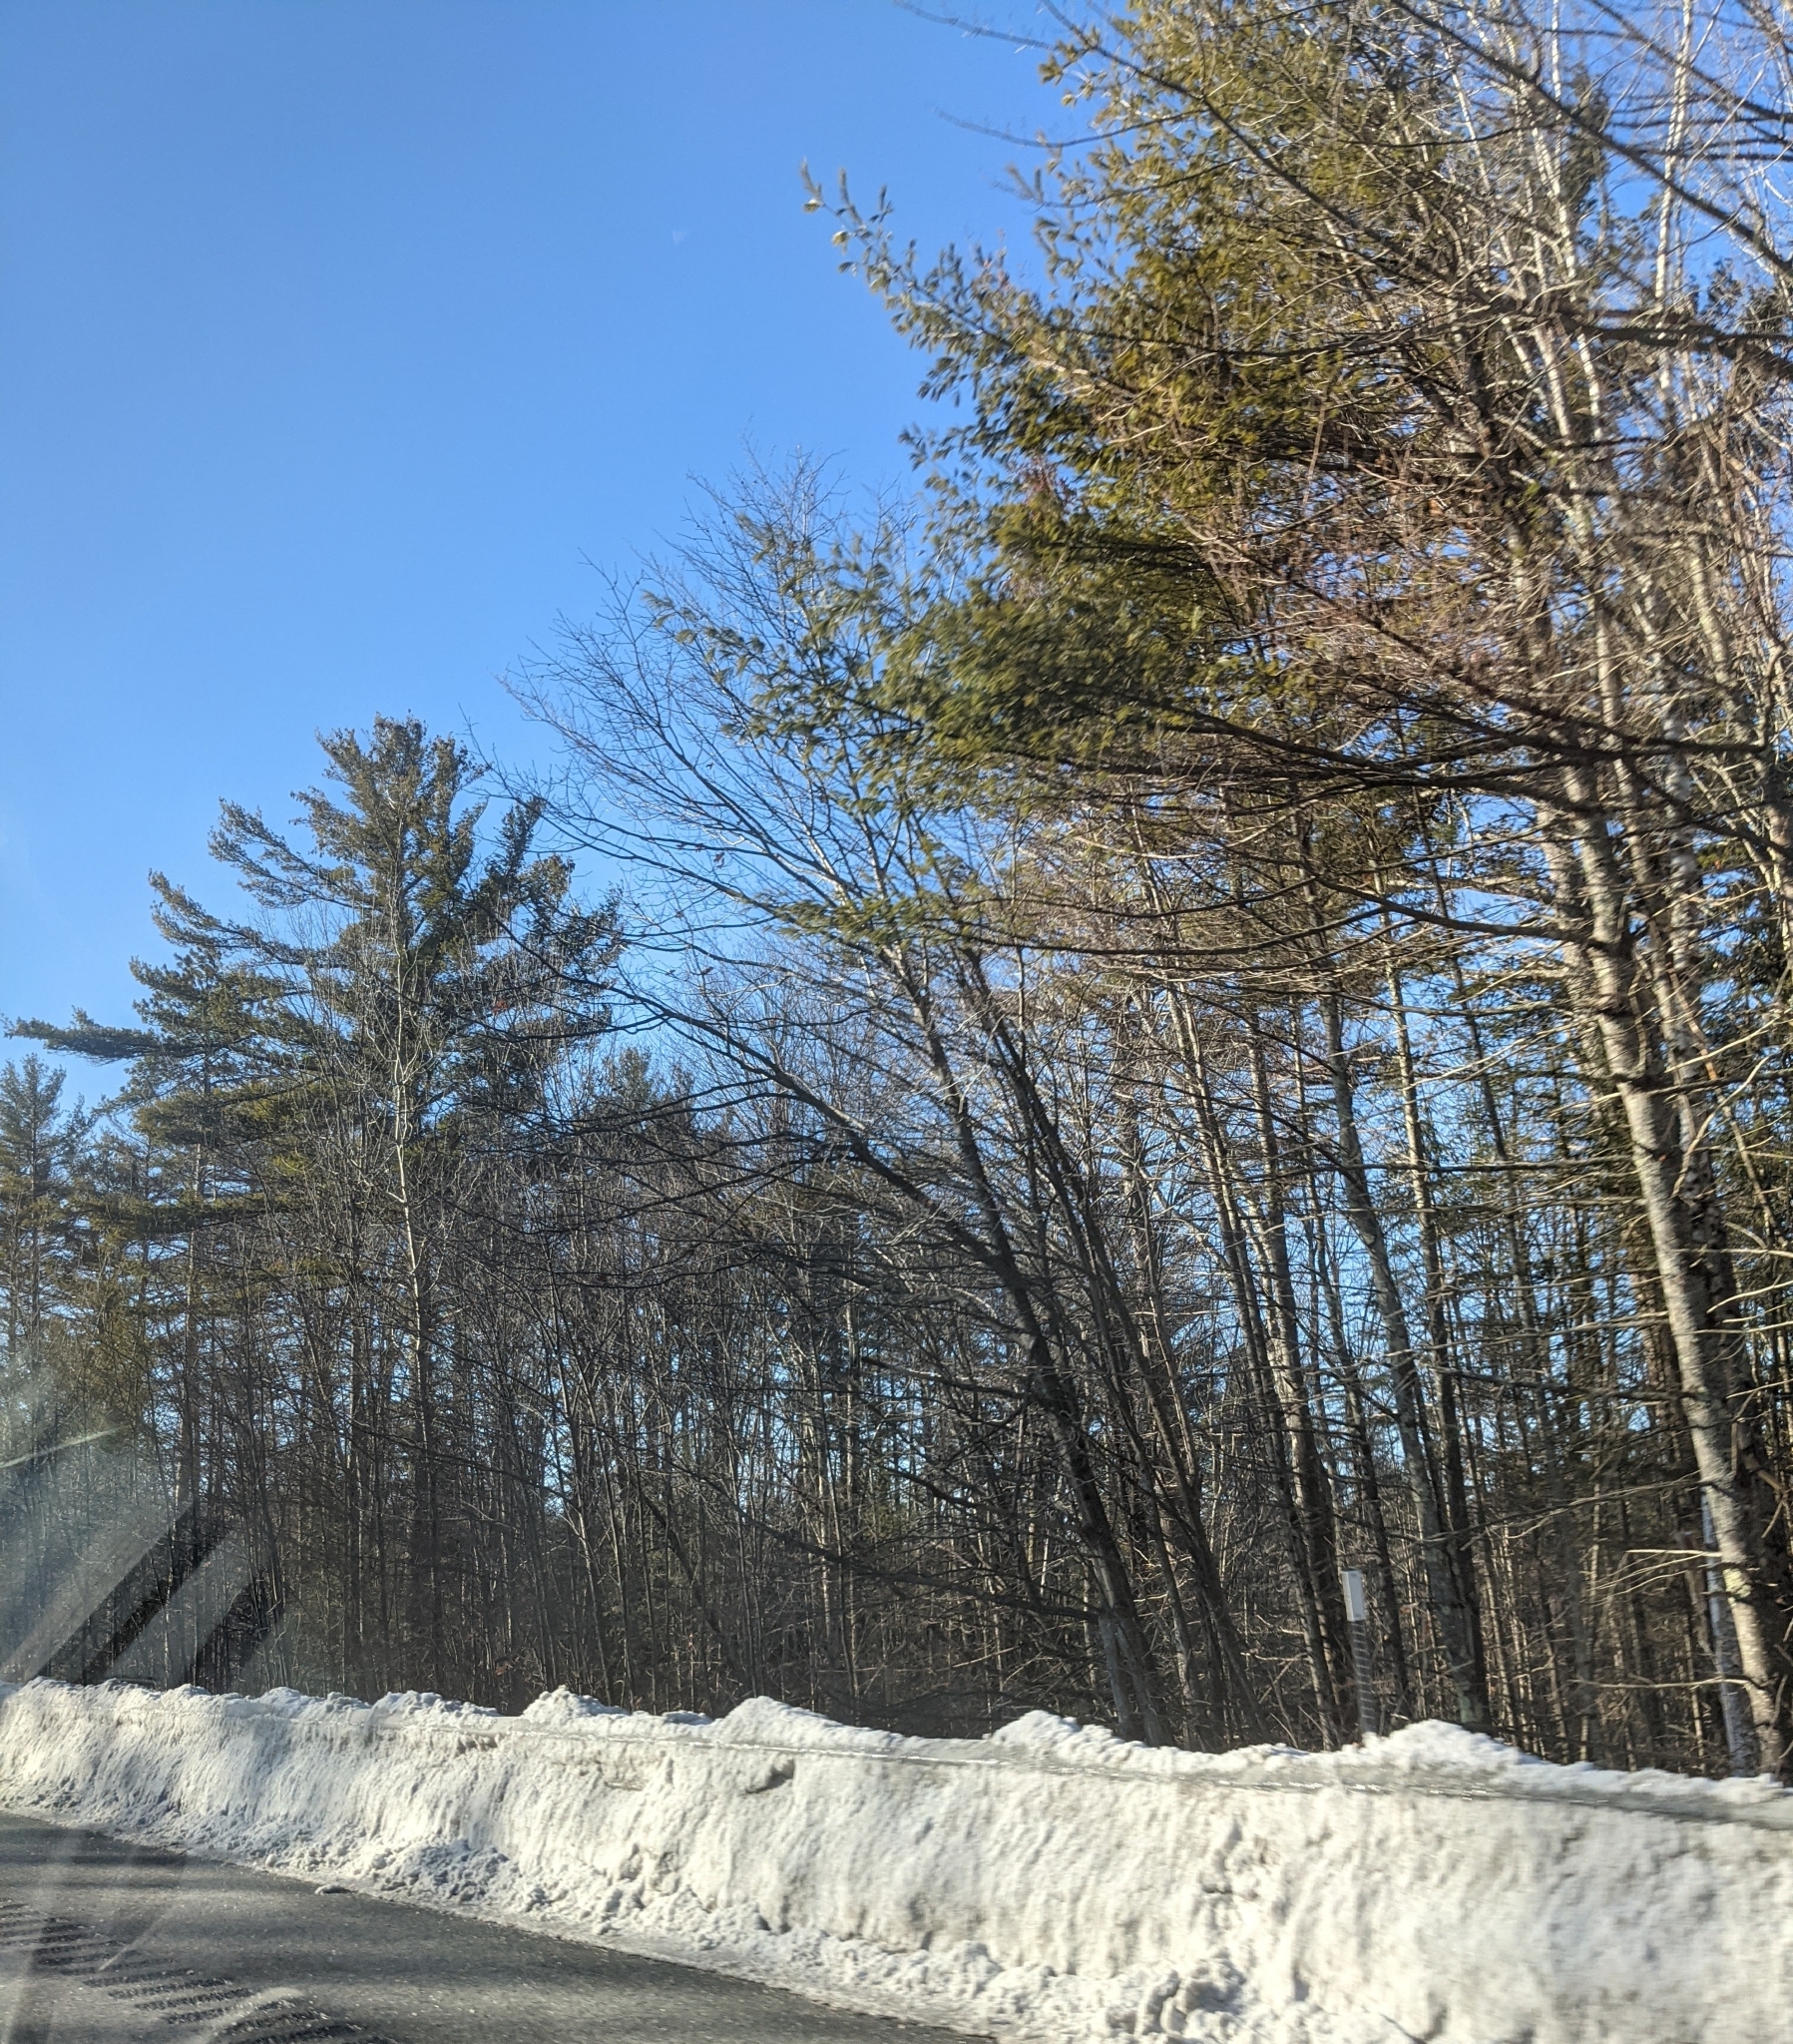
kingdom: Plantae
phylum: Tracheophyta
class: Pinopsida
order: Pinales
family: Pinaceae
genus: Pinus
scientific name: Pinus strobus
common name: Weymouth pine
